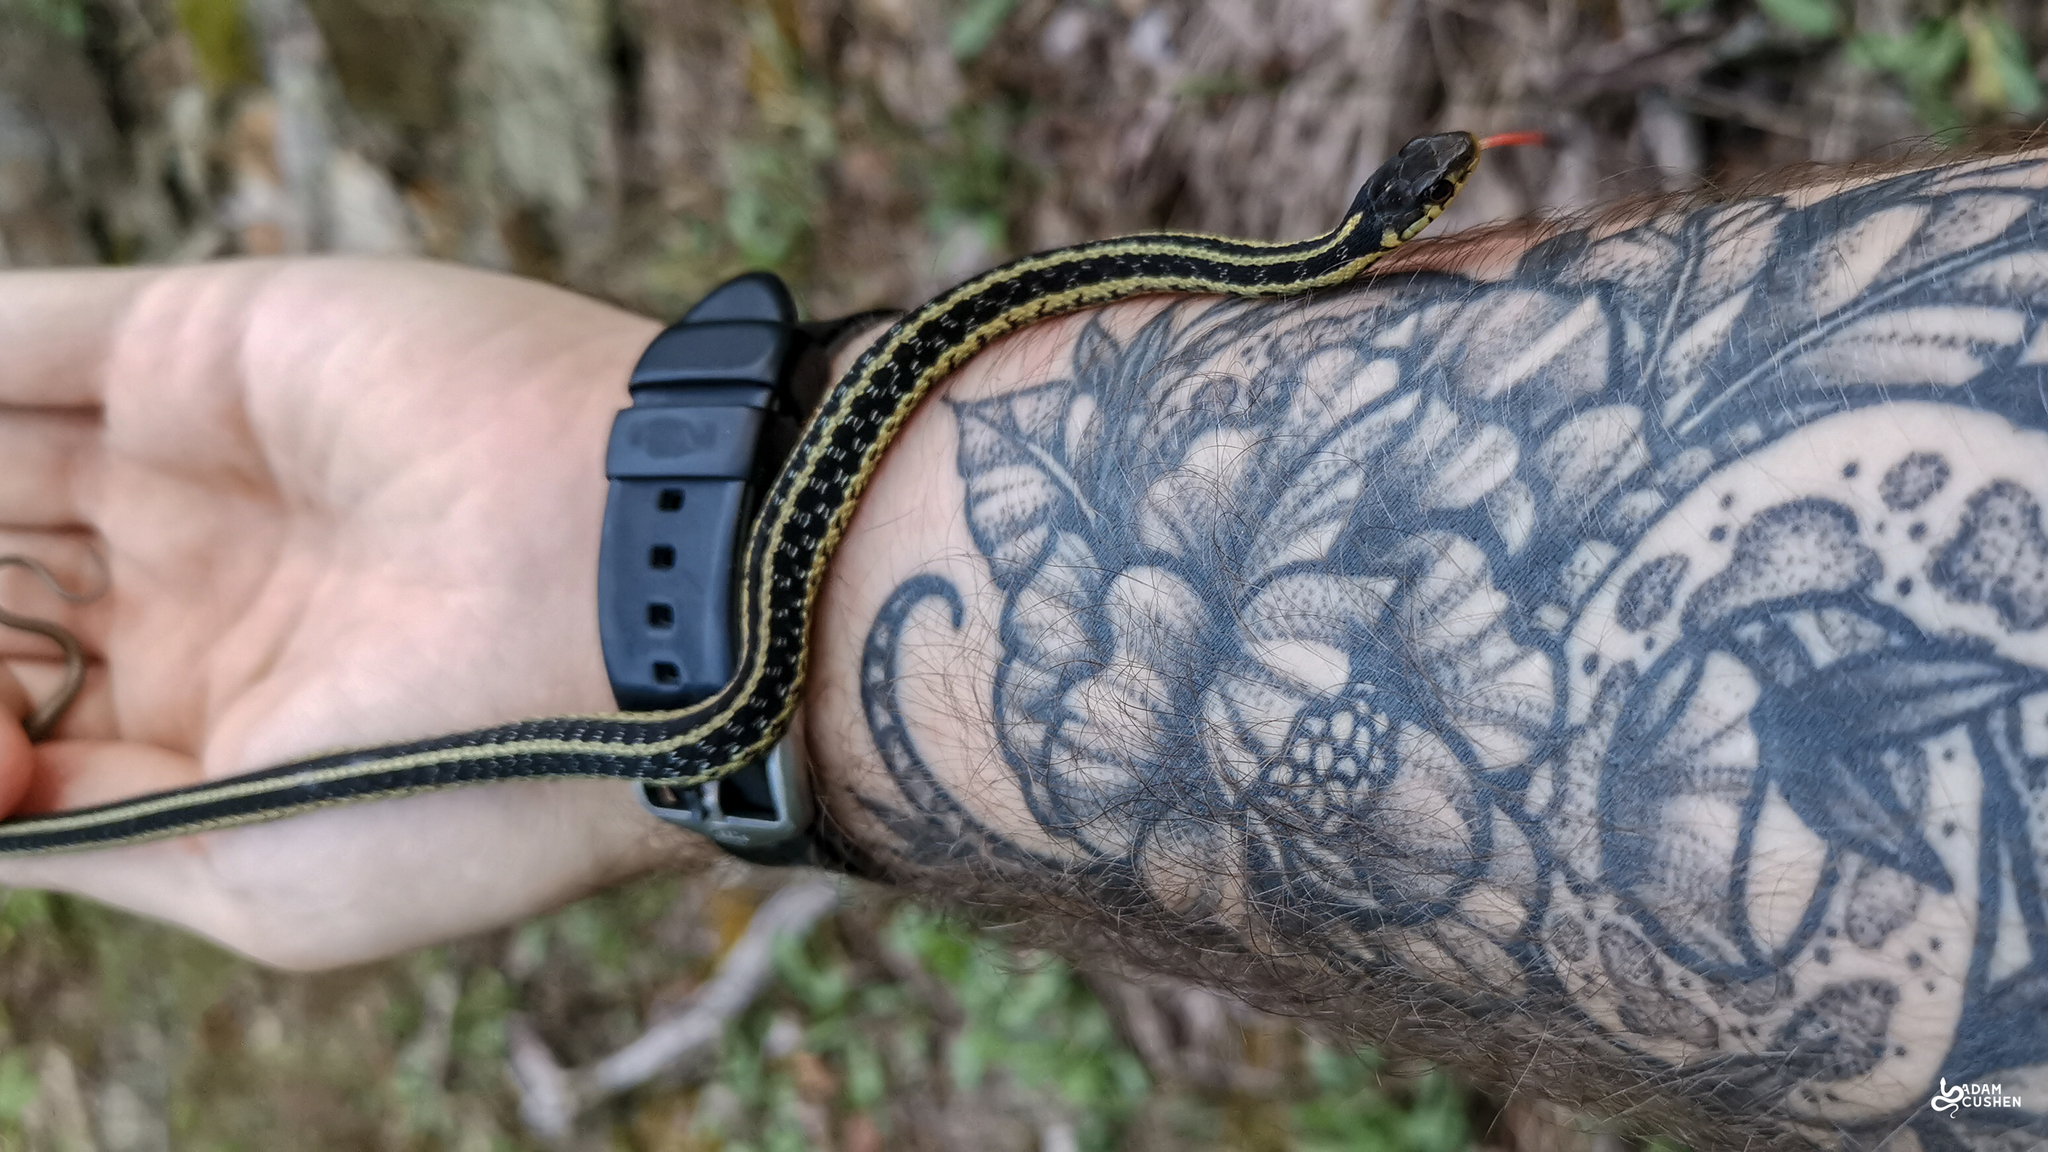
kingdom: Animalia
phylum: Chordata
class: Squamata
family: Colubridae
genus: Thamnophis
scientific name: Thamnophis sirtalis
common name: Common garter snake
